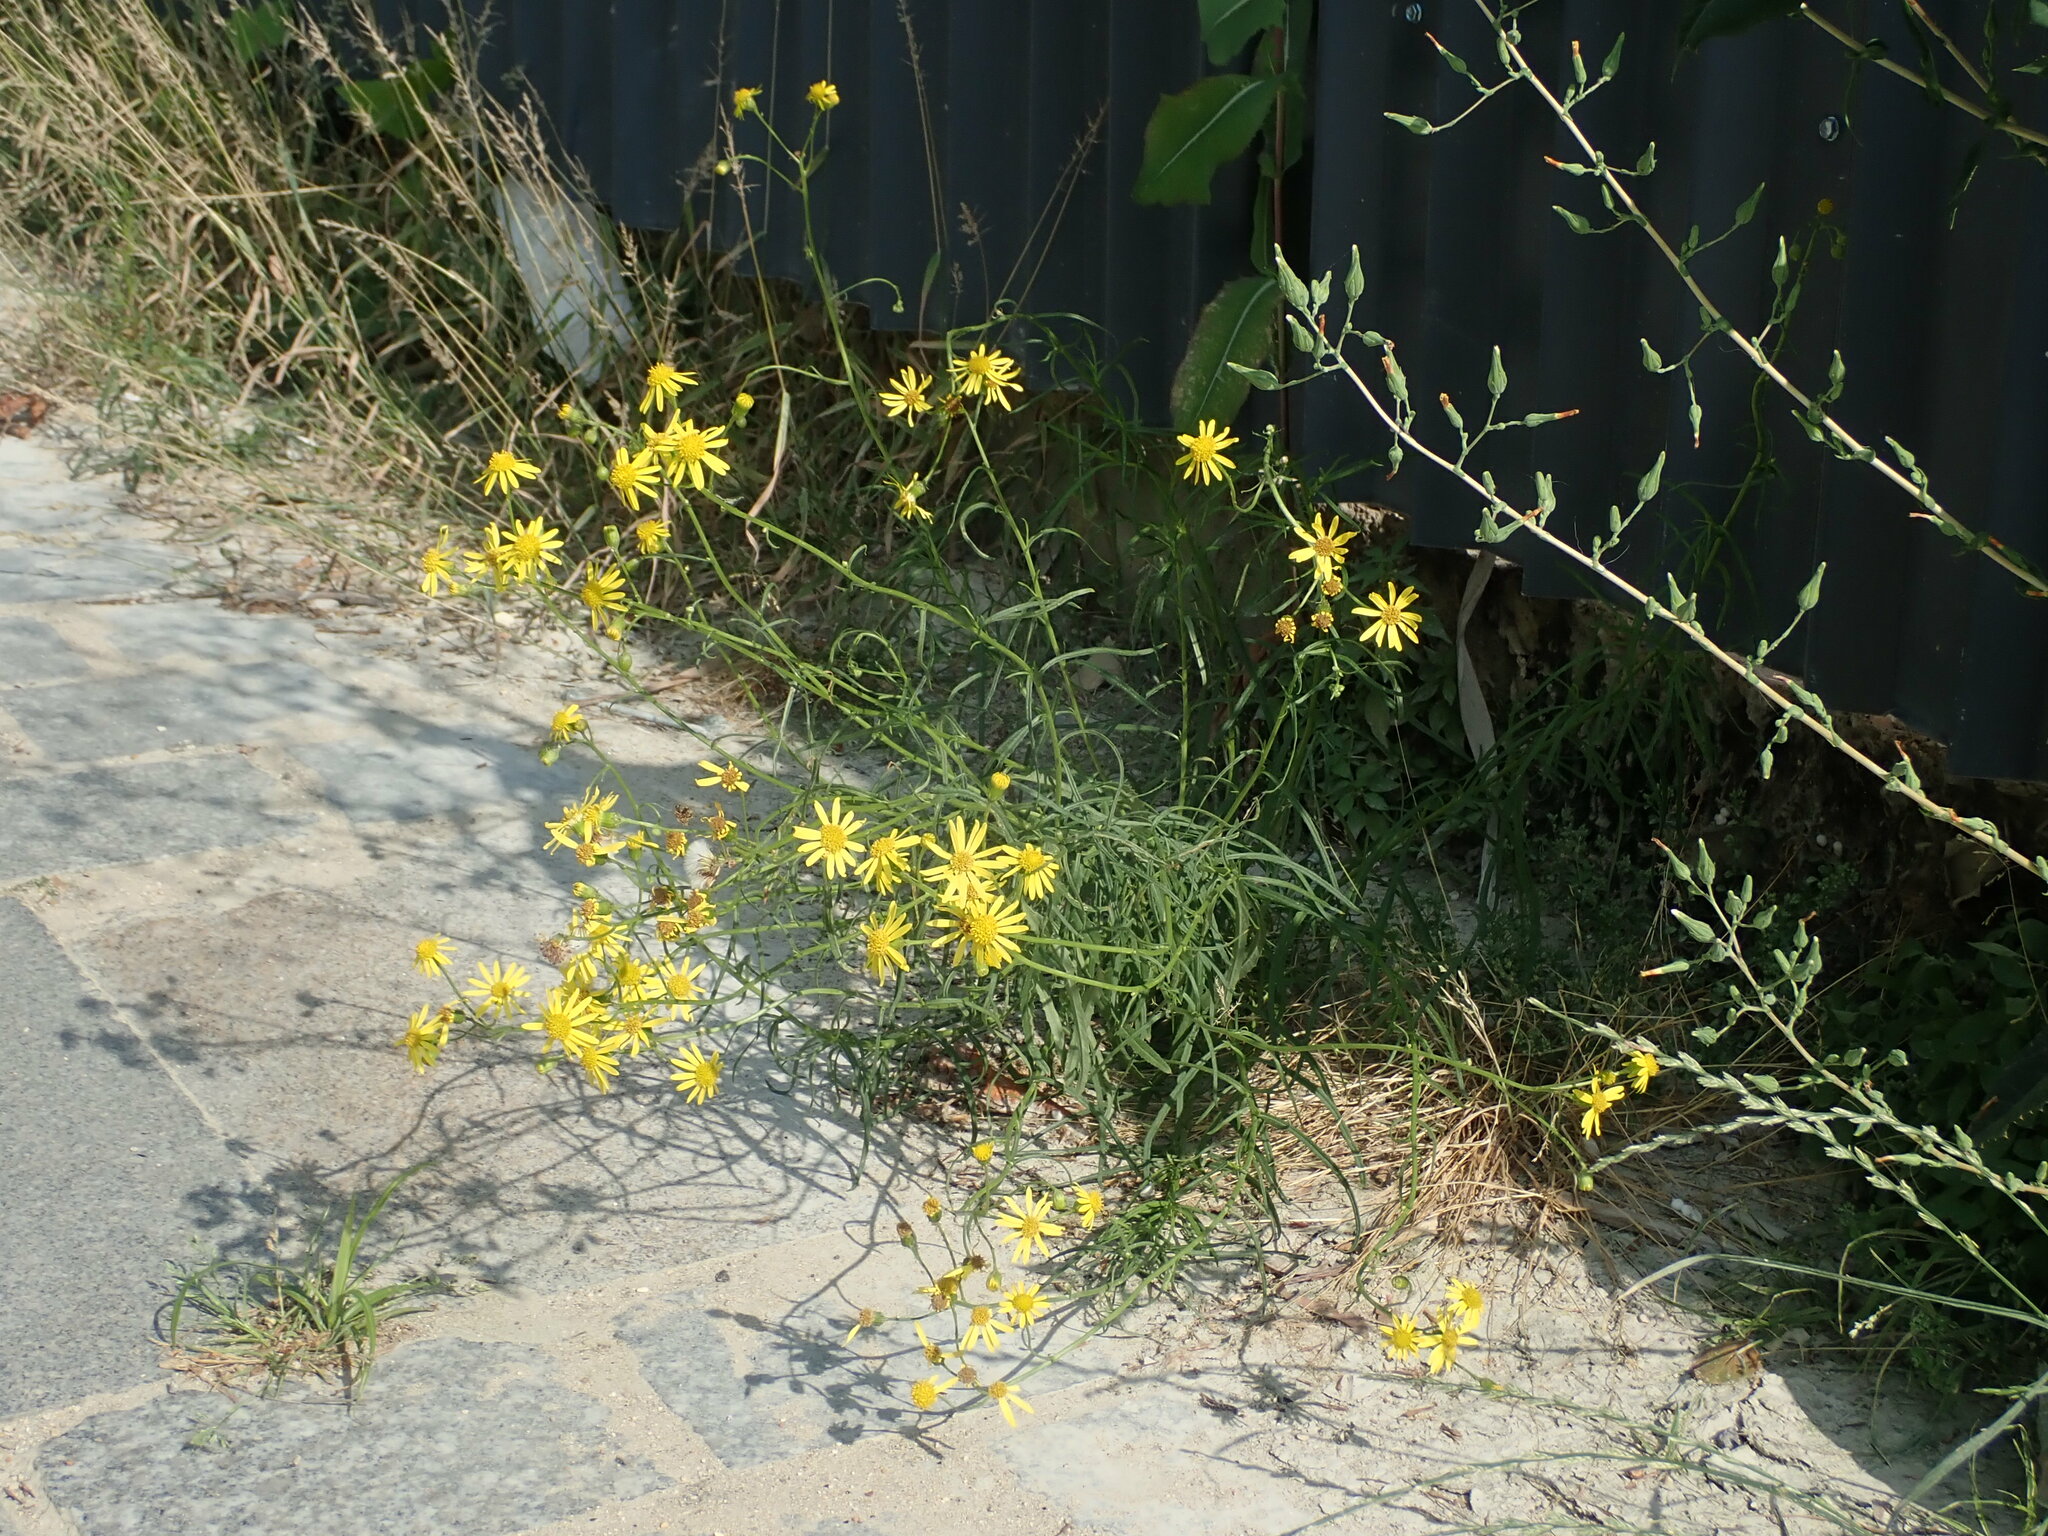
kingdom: Plantae
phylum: Tracheophyta
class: Magnoliopsida
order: Asterales
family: Asteraceae
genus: Senecio
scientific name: Senecio inaequidens
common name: Narrow-leaved ragwort
